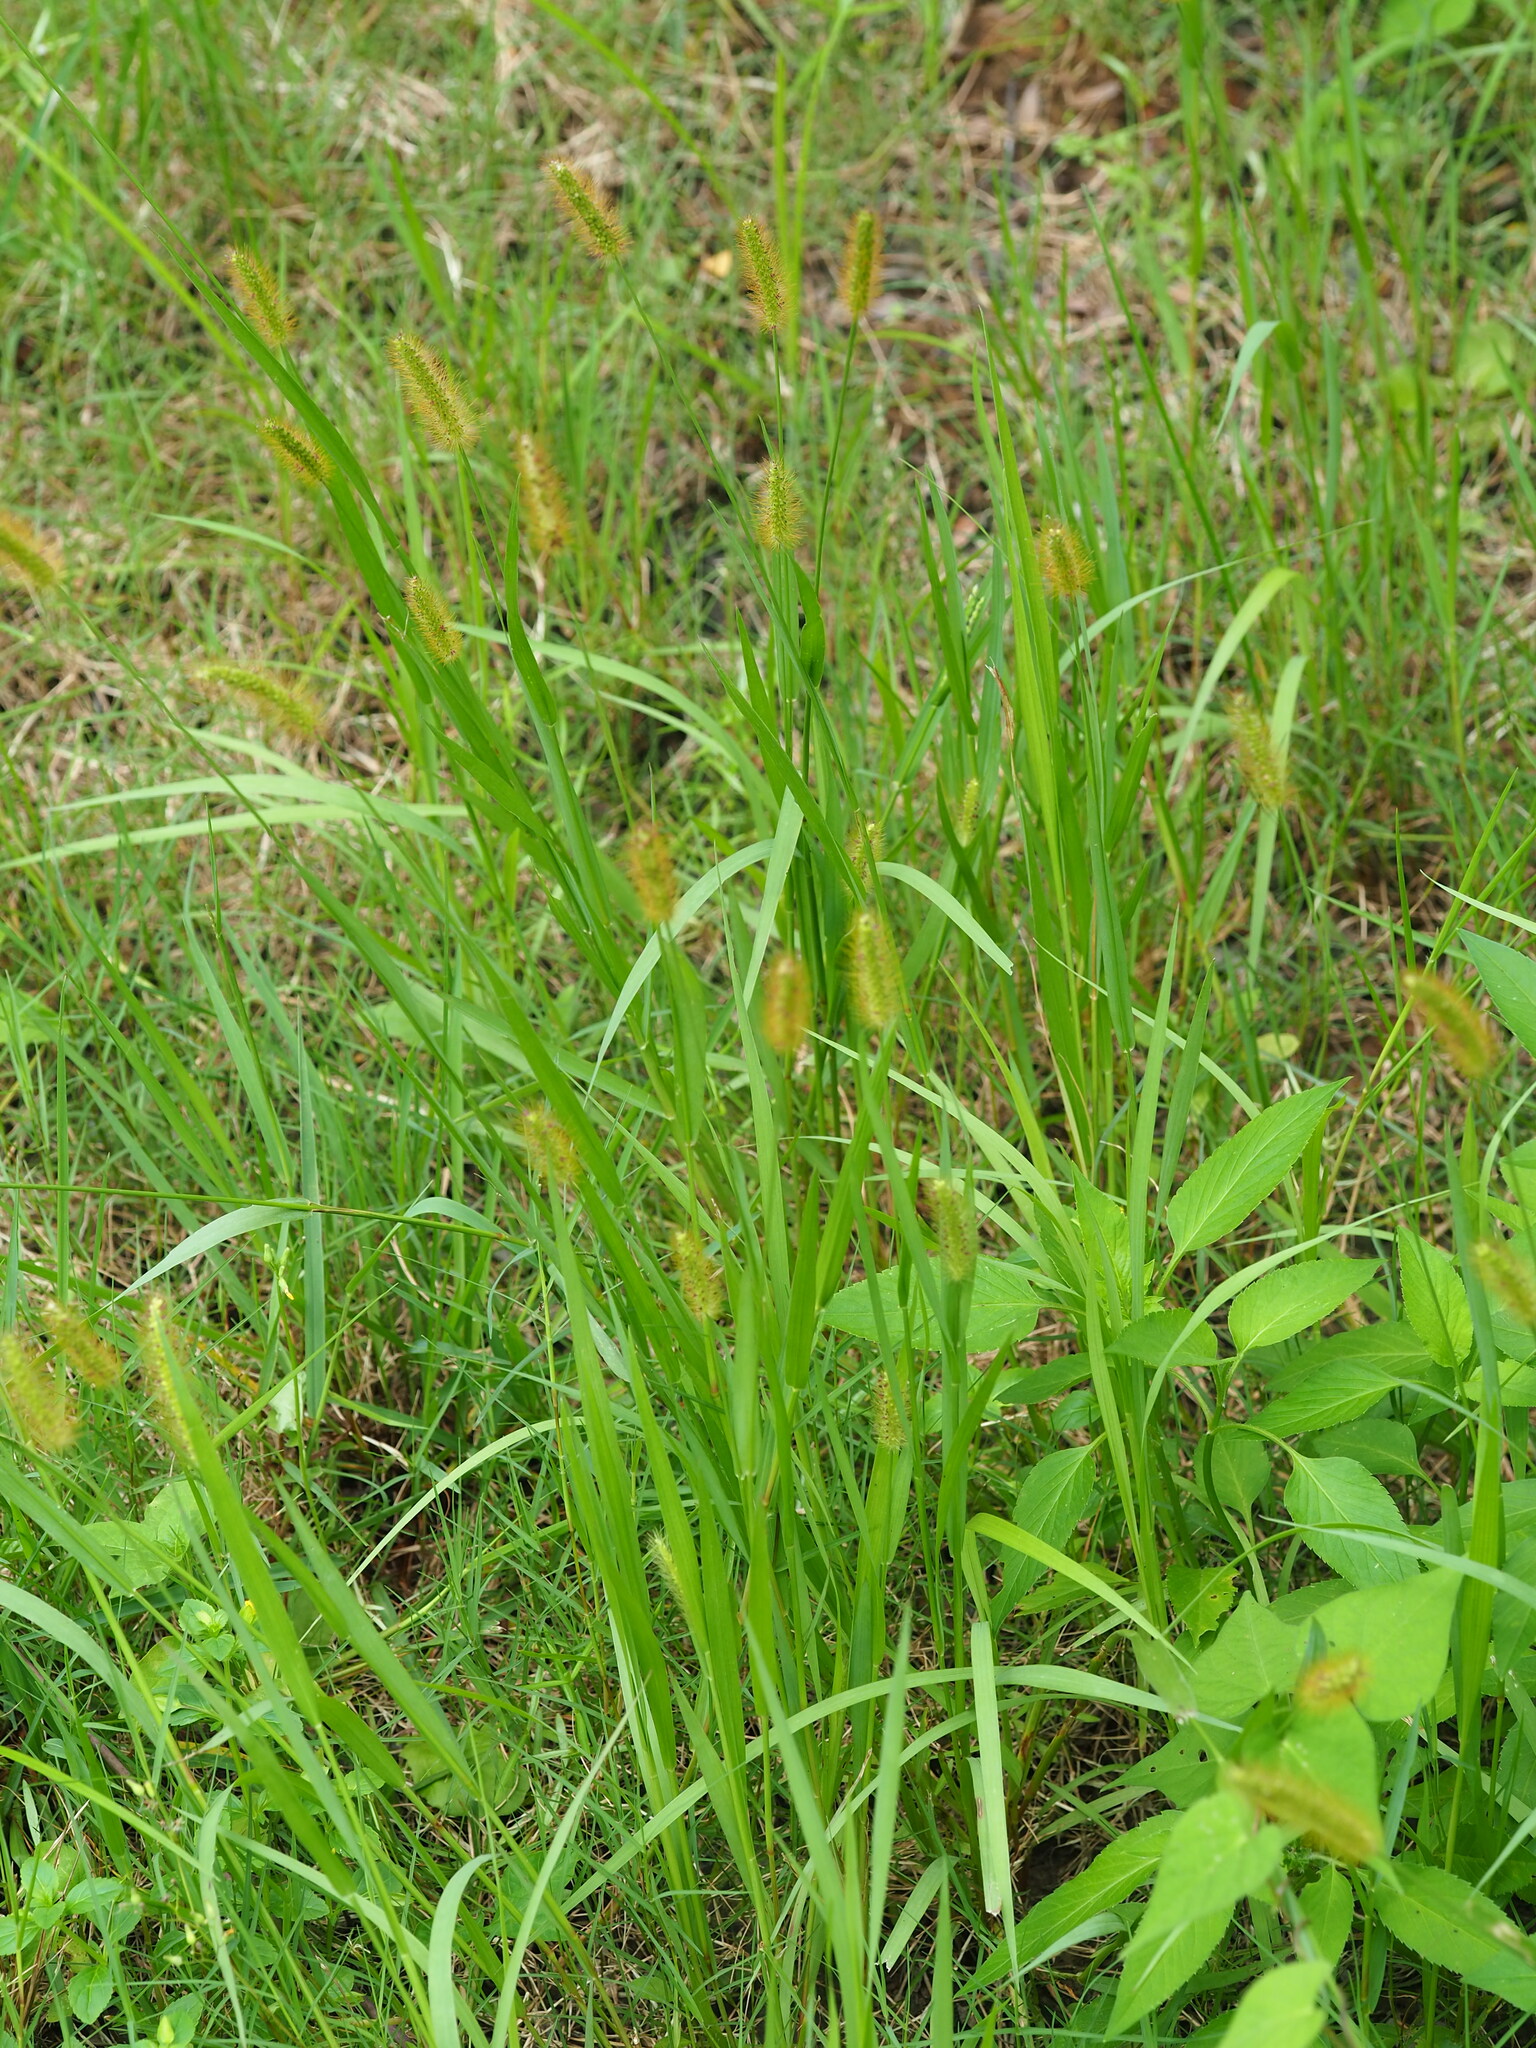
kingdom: Plantae
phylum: Tracheophyta
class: Liliopsida
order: Poales
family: Poaceae
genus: Setaria
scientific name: Setaria parviflora
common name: Knotroot bristle-grass
